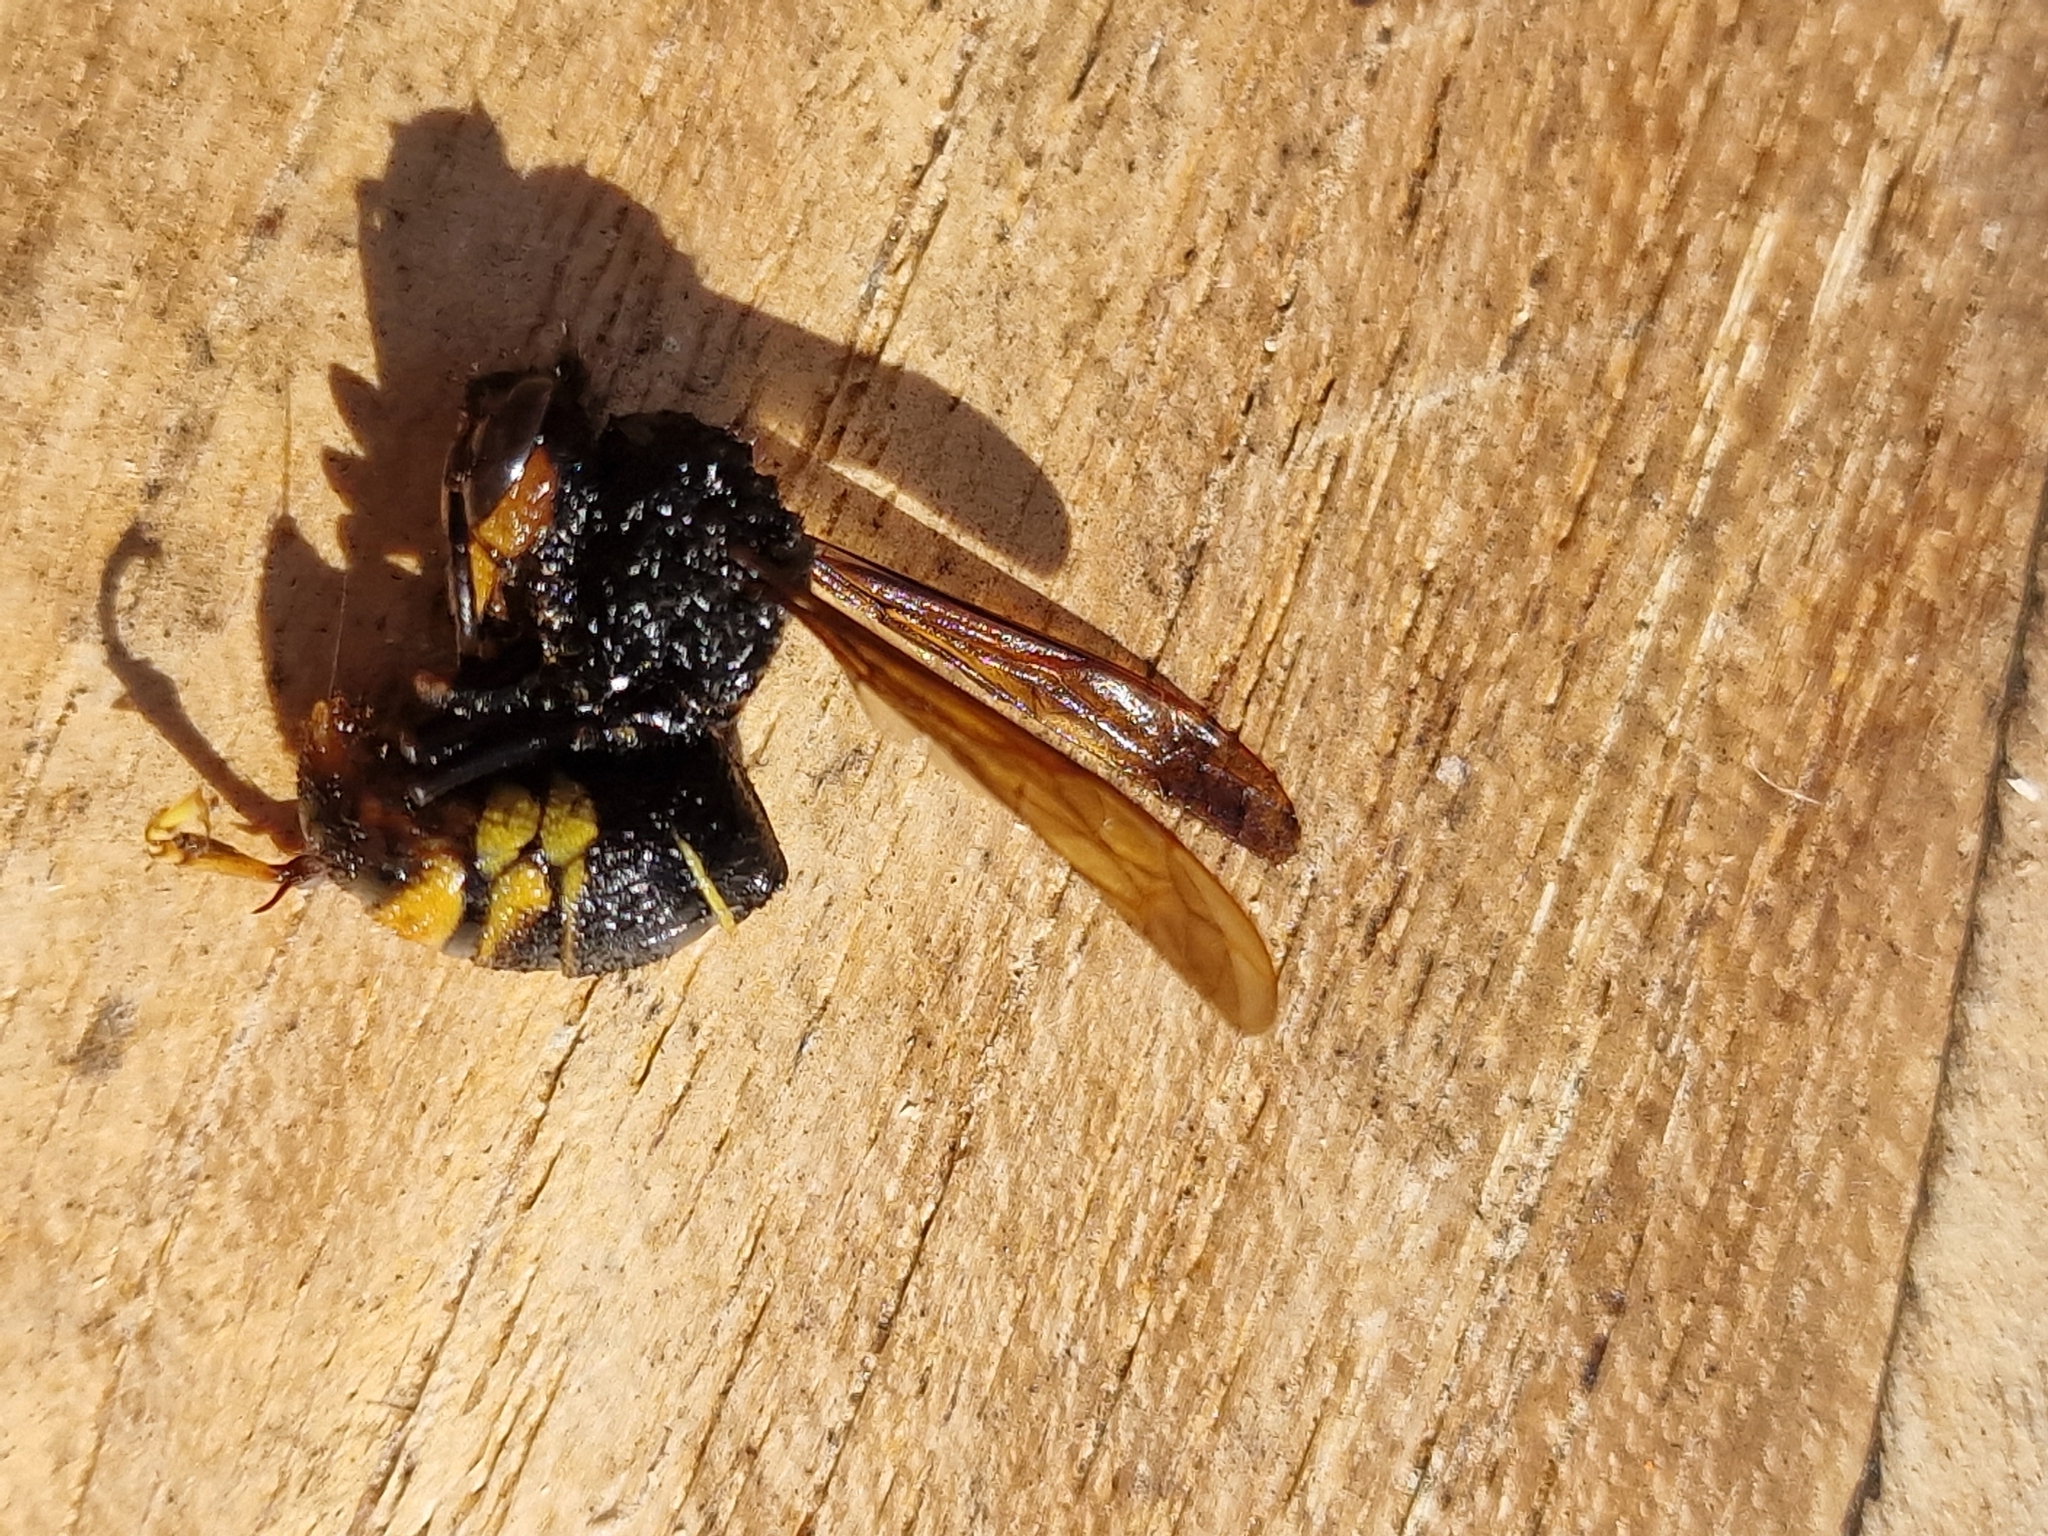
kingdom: Animalia
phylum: Arthropoda
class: Insecta
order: Hymenoptera
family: Vespidae
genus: Vespa
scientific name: Vespa velutina
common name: Asian hornet
